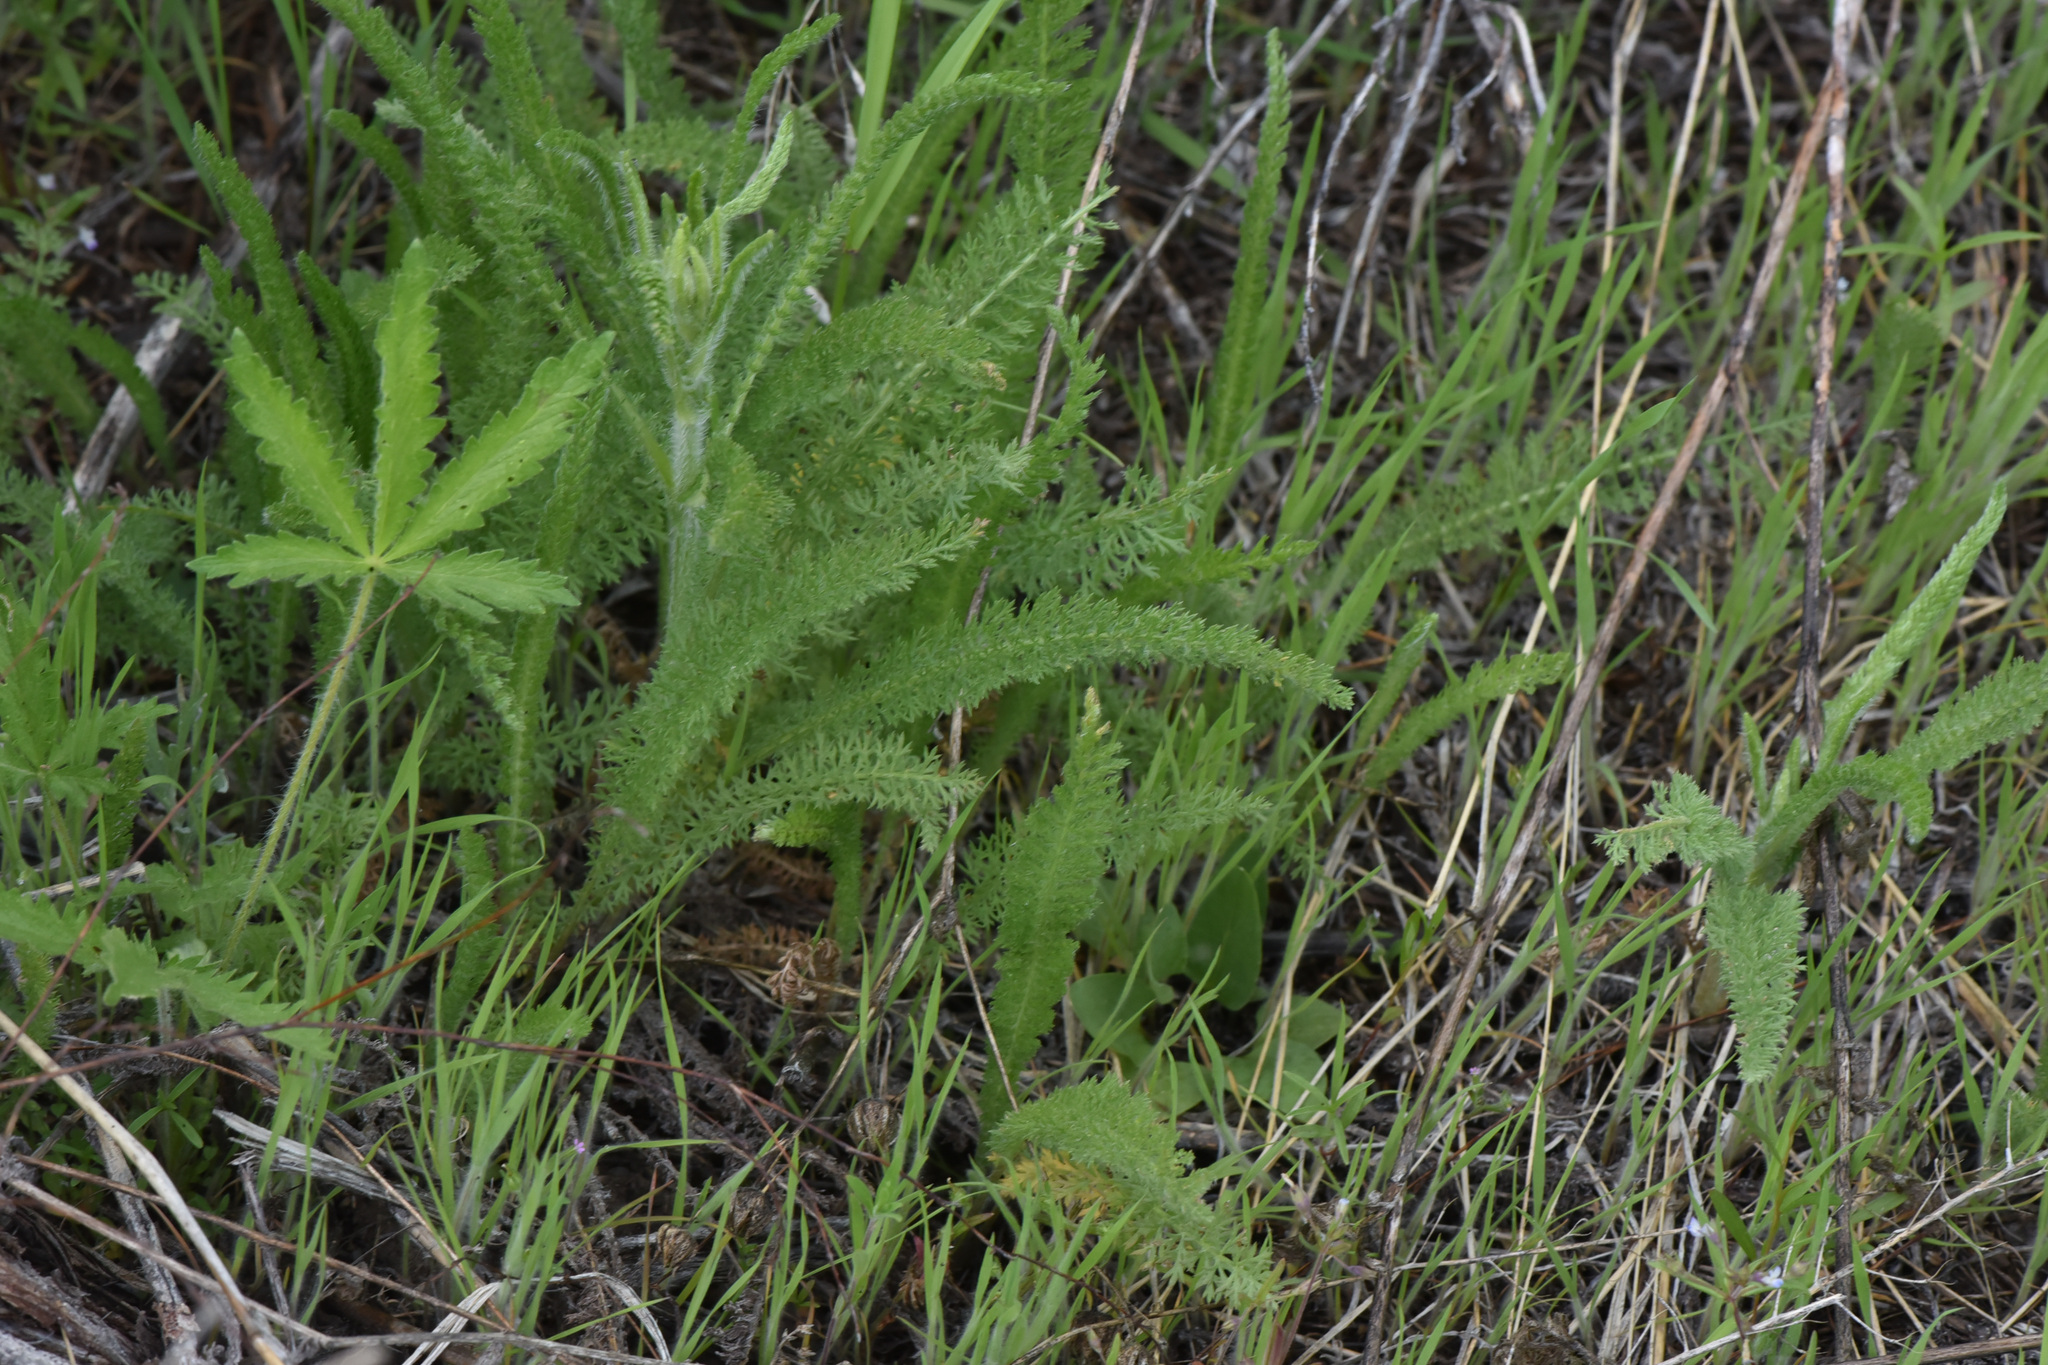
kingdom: Plantae
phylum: Tracheophyta
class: Magnoliopsida
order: Asterales
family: Asteraceae
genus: Achillea
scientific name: Achillea millefolium
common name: Yarrow
